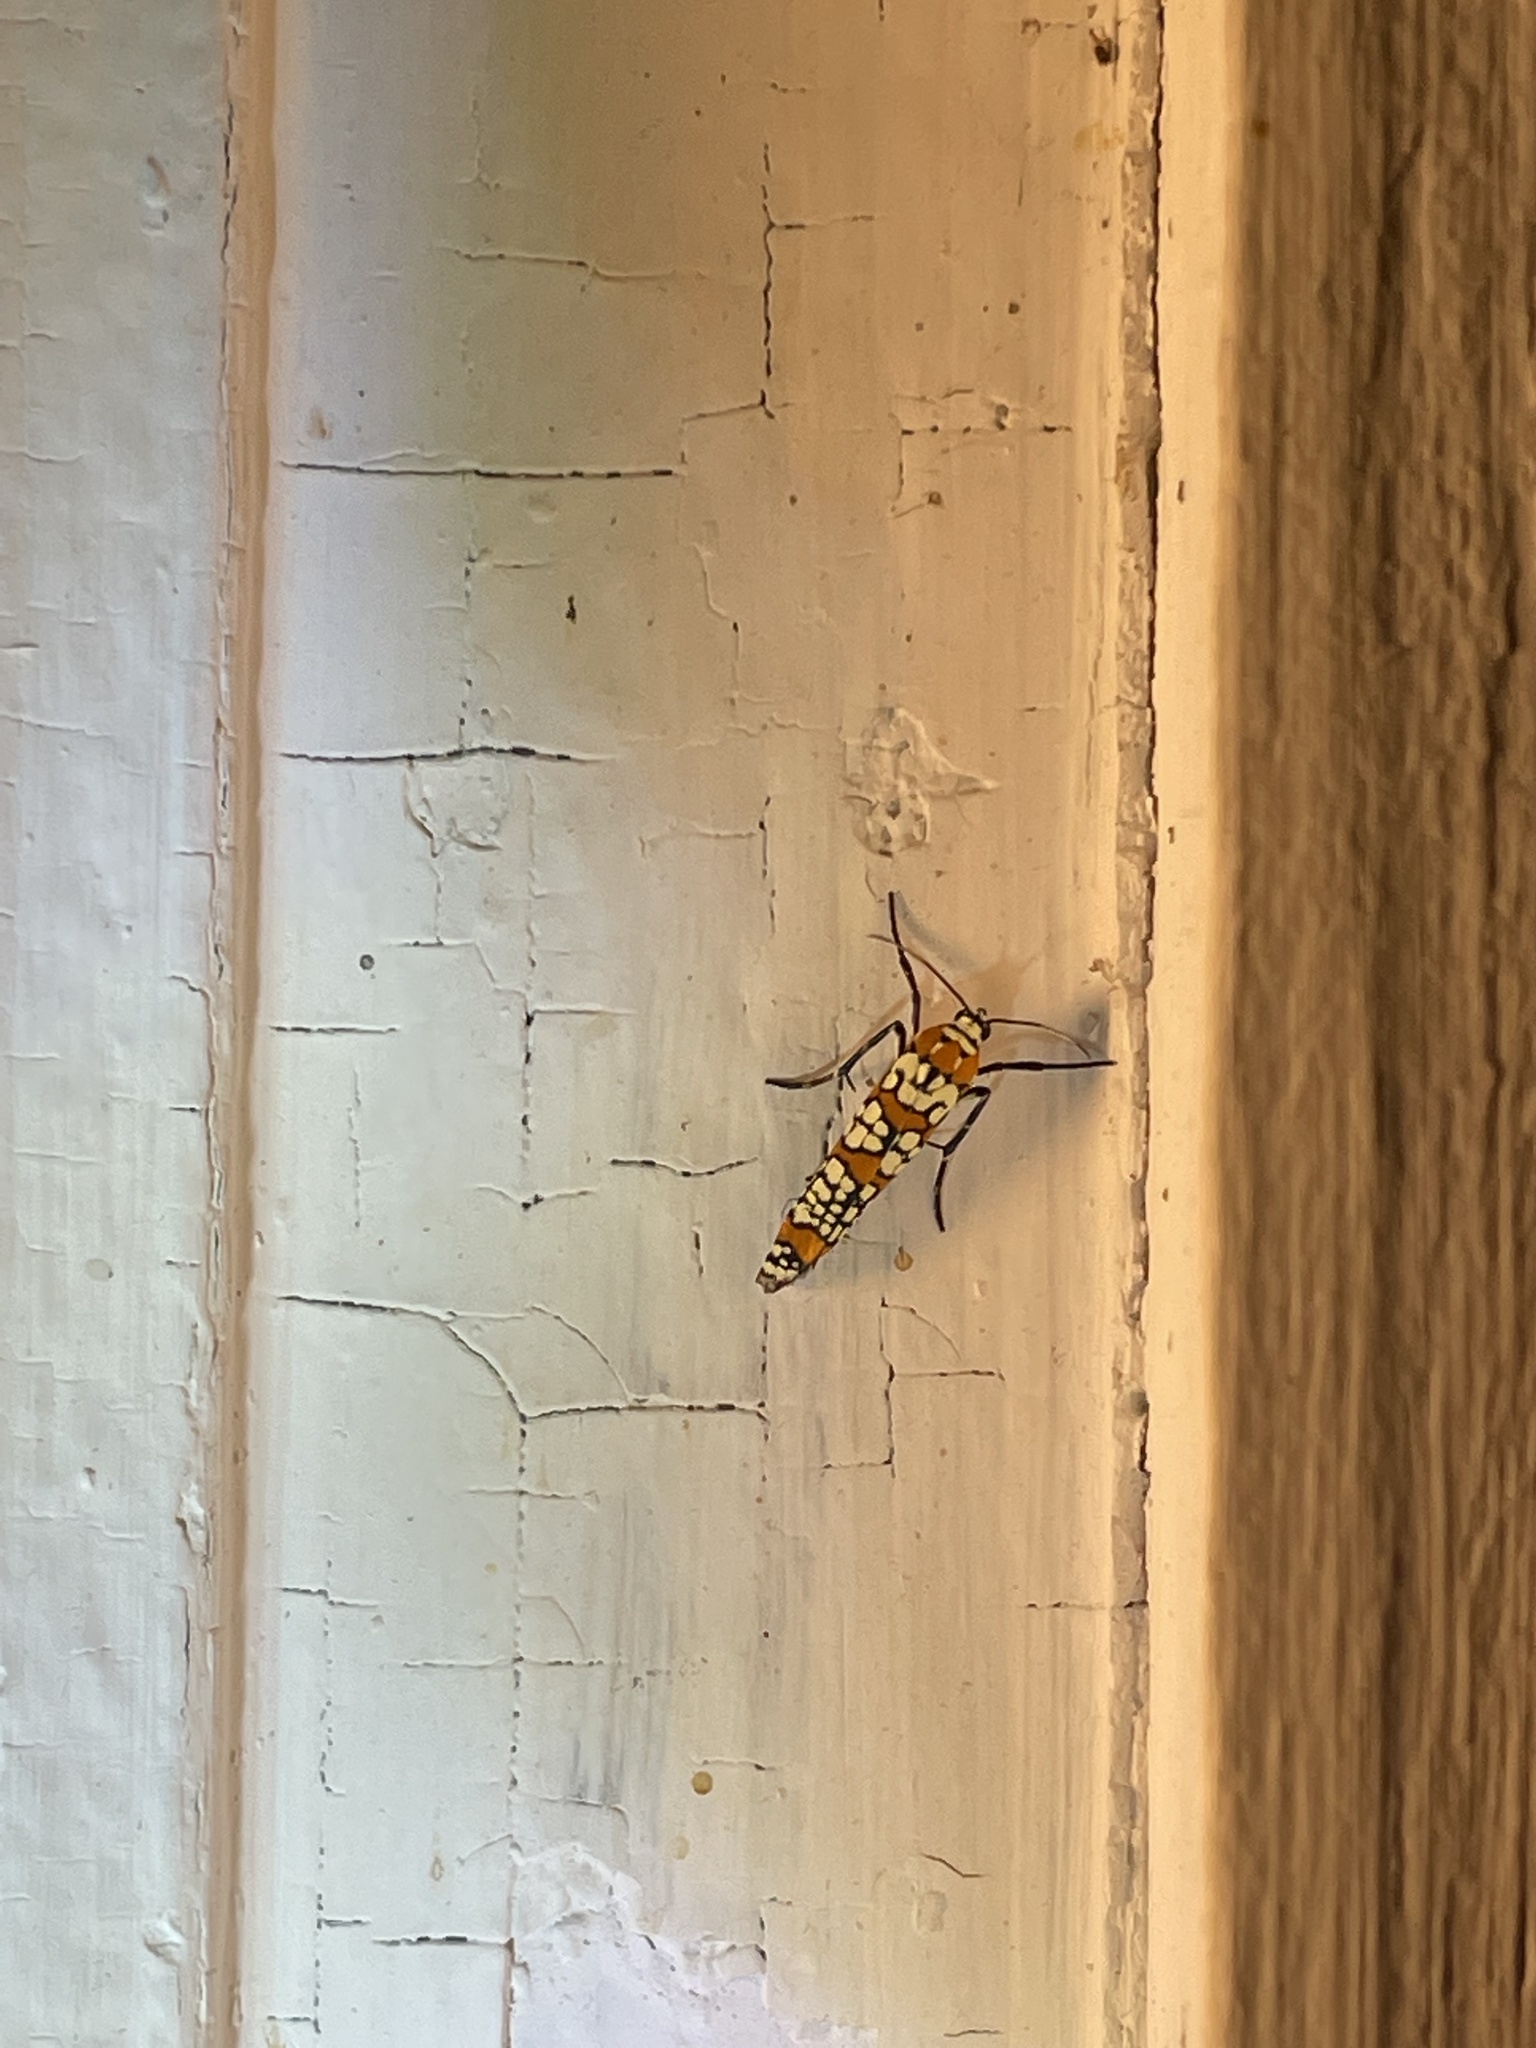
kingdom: Animalia
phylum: Arthropoda
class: Insecta
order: Lepidoptera
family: Attevidae
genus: Atteva
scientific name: Atteva punctella
